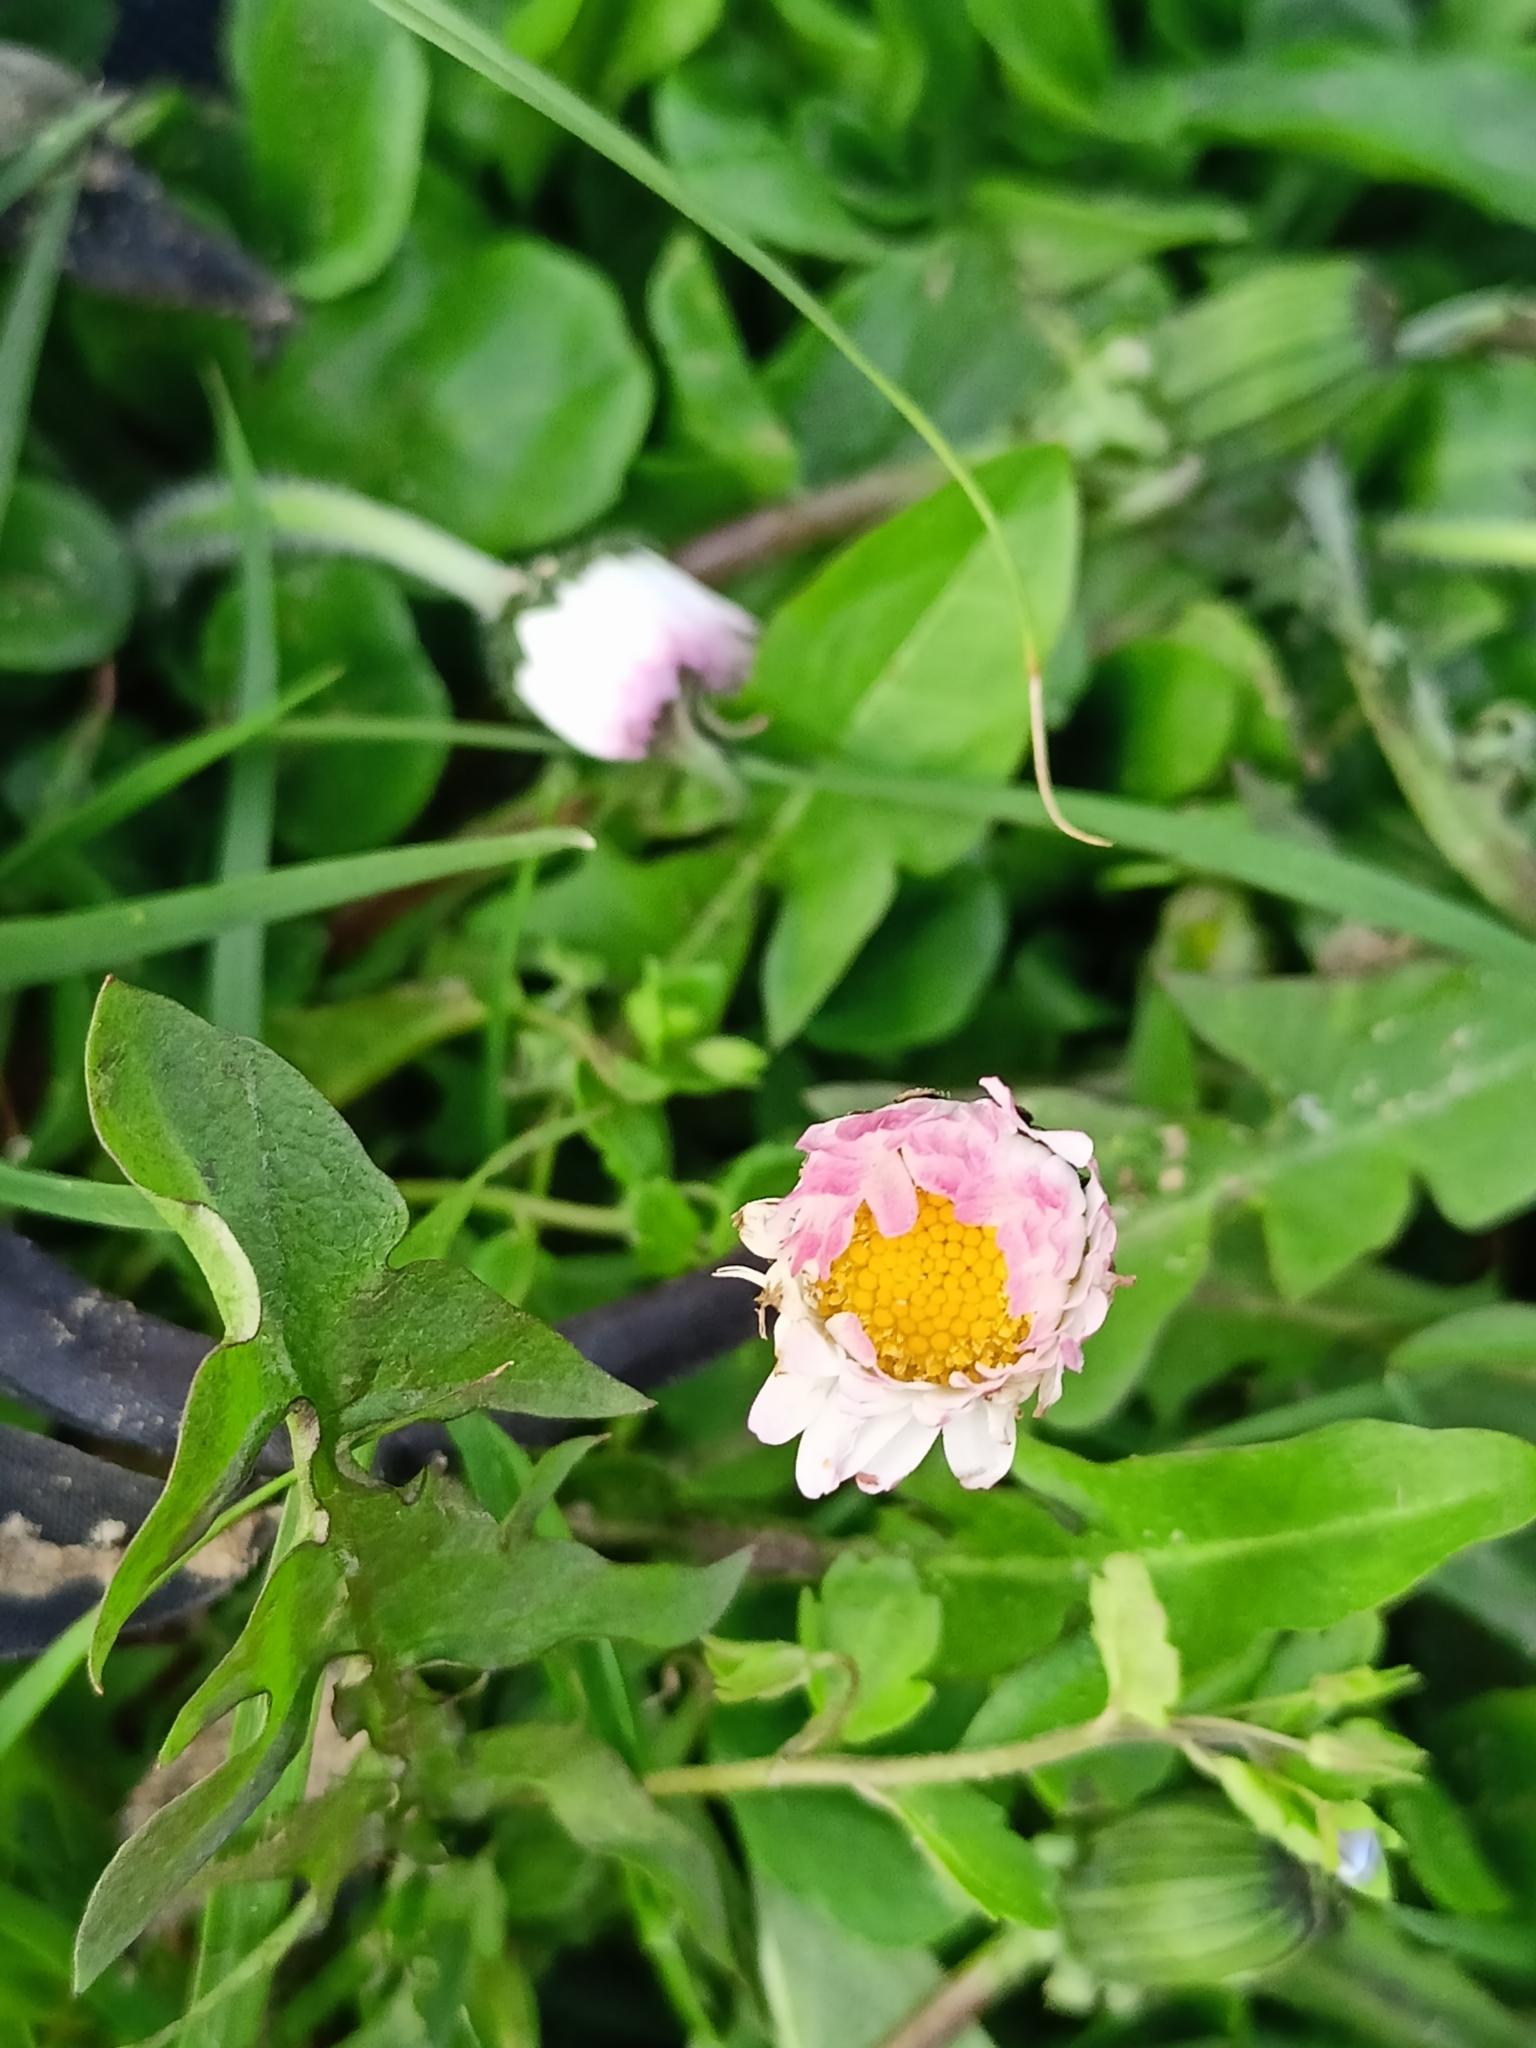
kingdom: Plantae
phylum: Tracheophyta
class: Magnoliopsida
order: Asterales
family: Asteraceae
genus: Bellis
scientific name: Bellis perennis
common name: Lawndaisy
